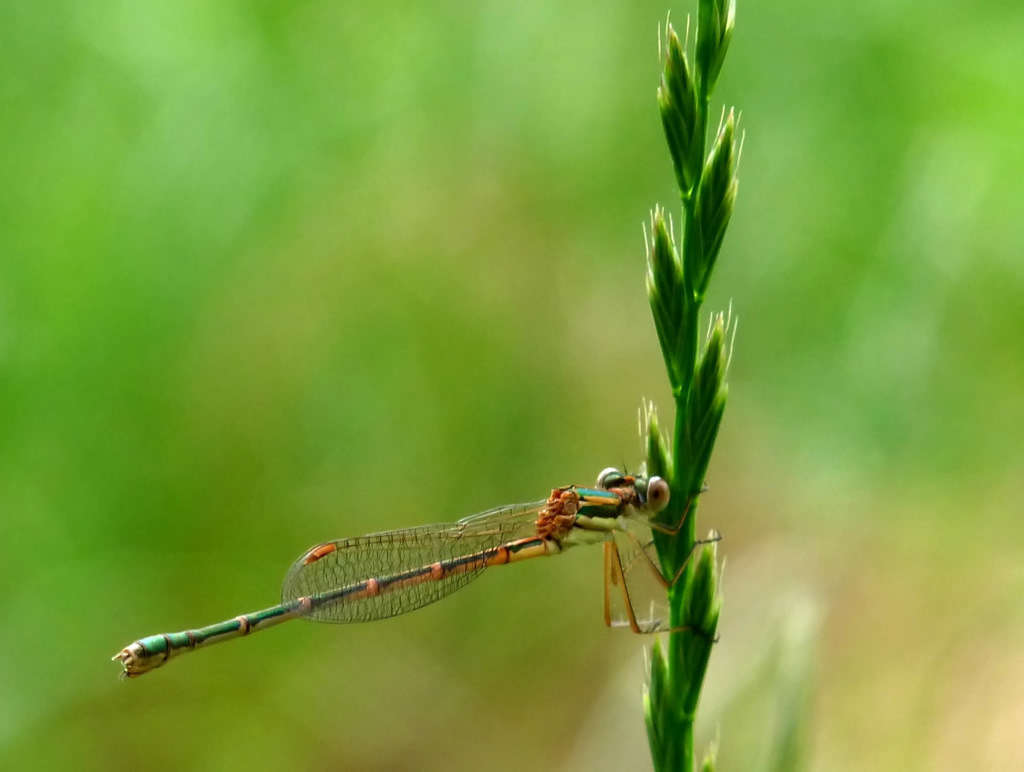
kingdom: Animalia
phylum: Arthropoda
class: Insecta
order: Odonata
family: Lestidae
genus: Austrolestes
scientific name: Austrolestes analis
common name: Slender ringtail
